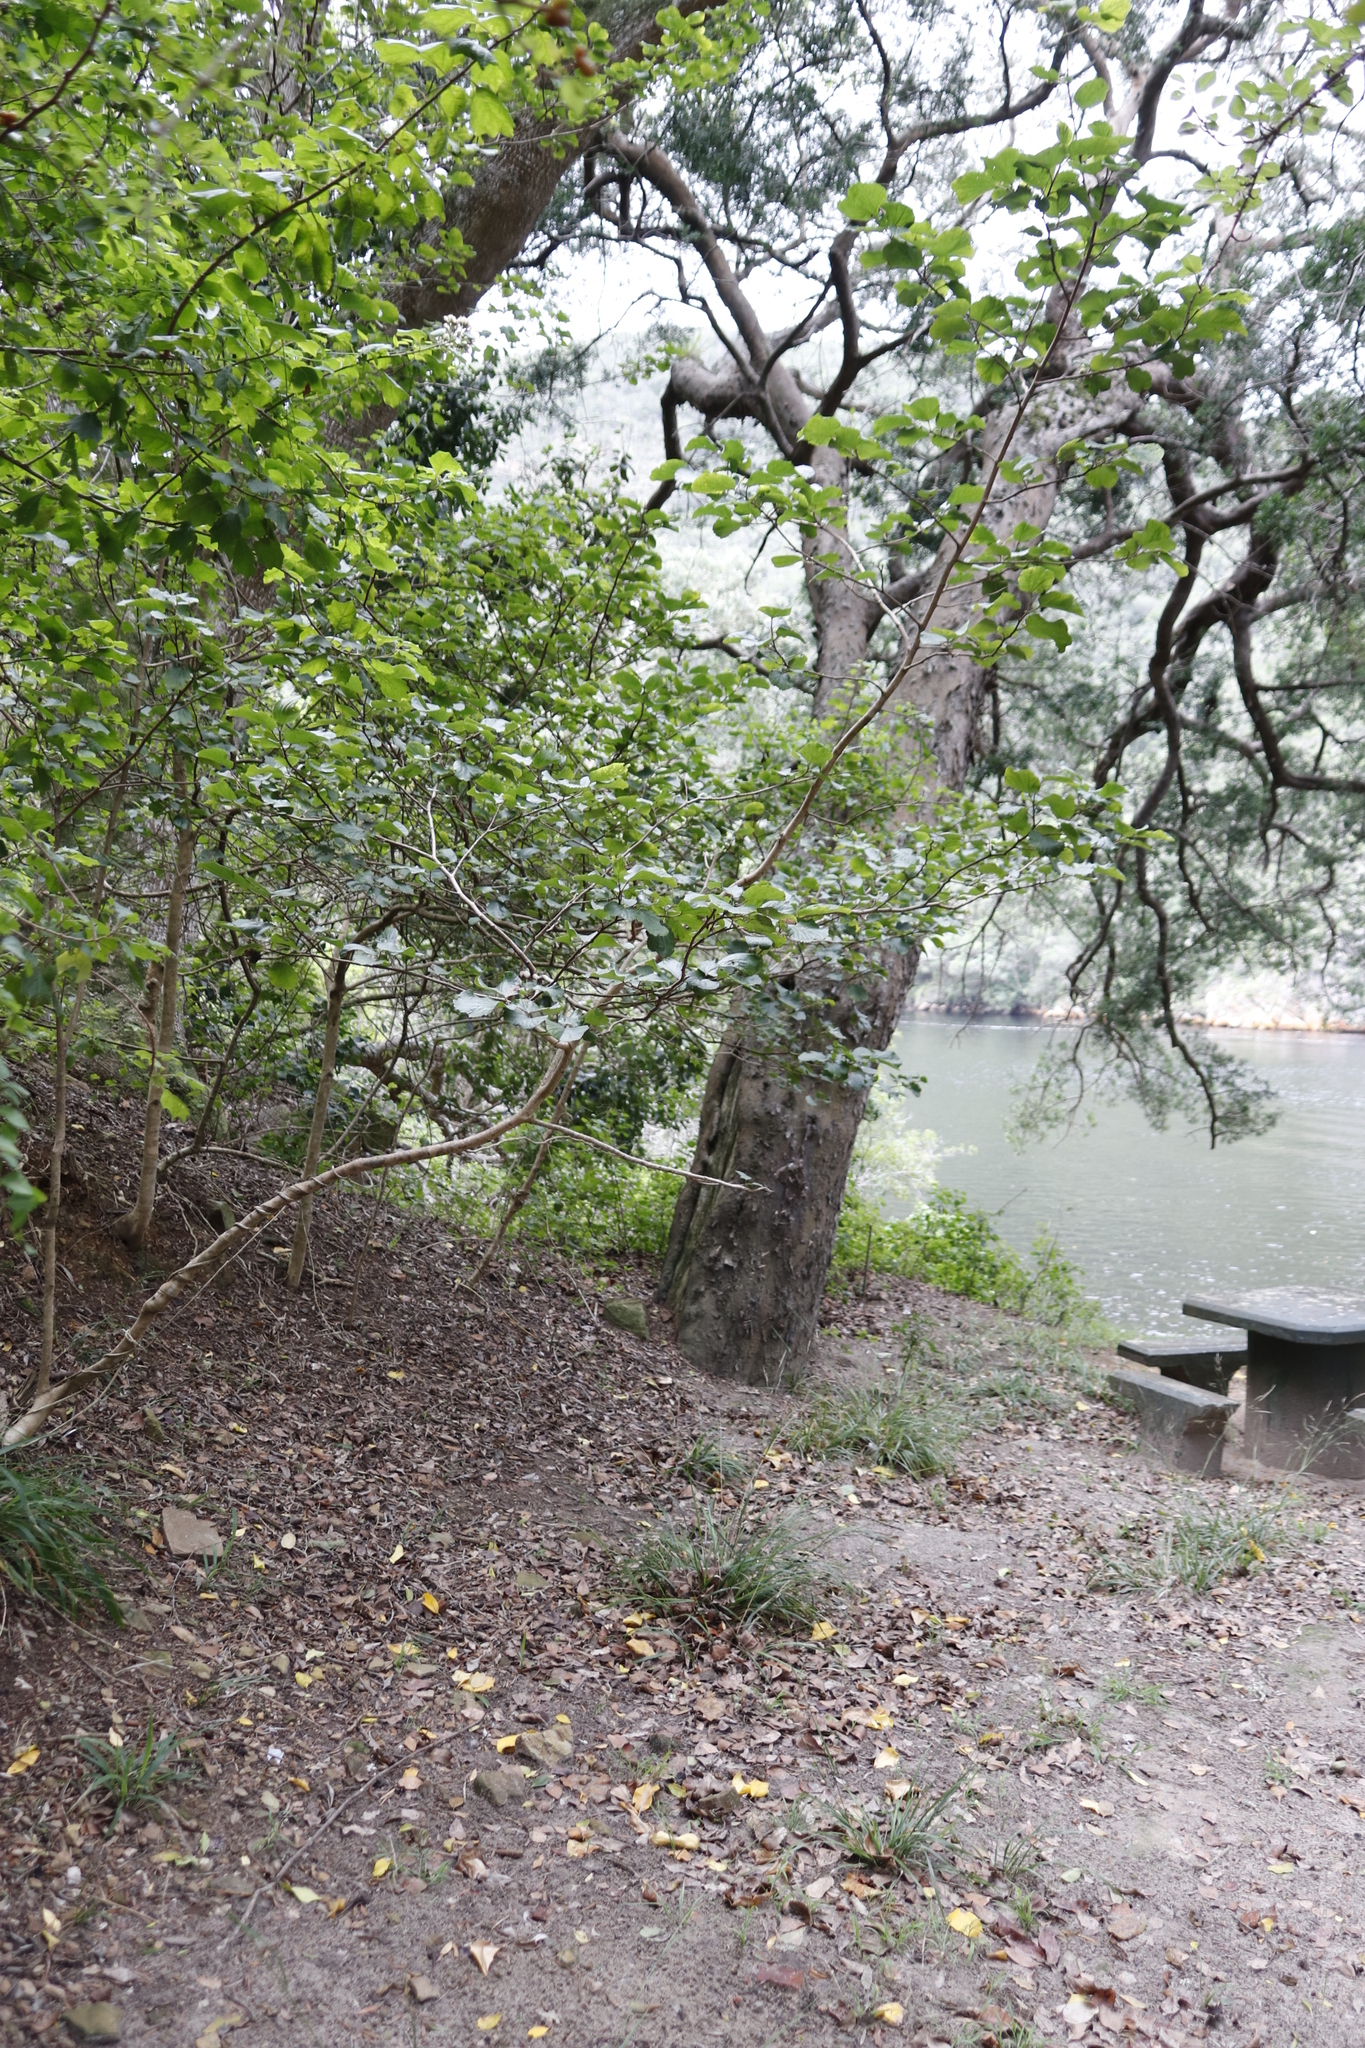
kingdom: Plantae
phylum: Tracheophyta
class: Magnoliopsida
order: Malpighiales
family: Salicaceae
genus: Trimeria
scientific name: Trimeria grandifolia
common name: Wild mulberry
